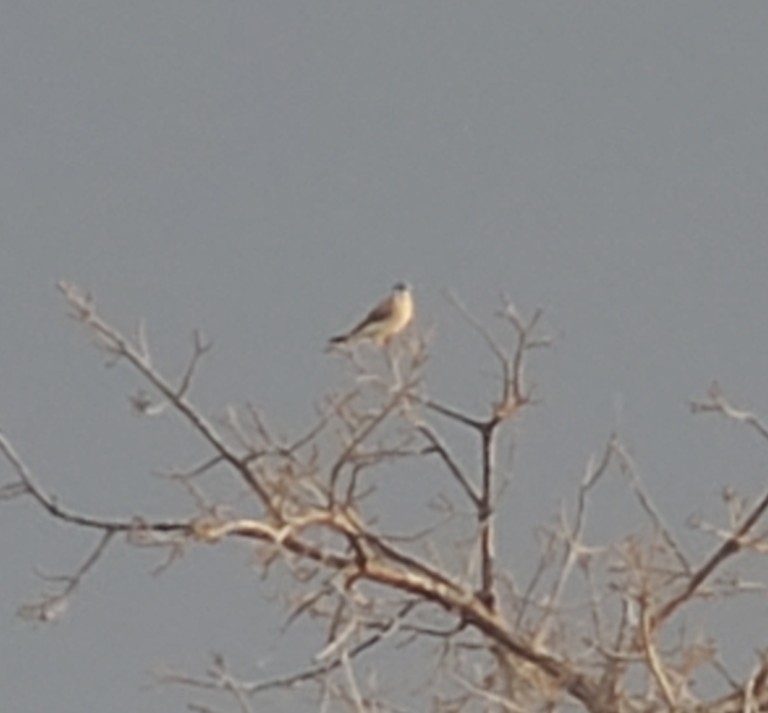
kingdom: Animalia
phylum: Chordata
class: Aves
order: Falconiformes
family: Falconidae
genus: Falco
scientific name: Falco sparverius
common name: American kestrel
